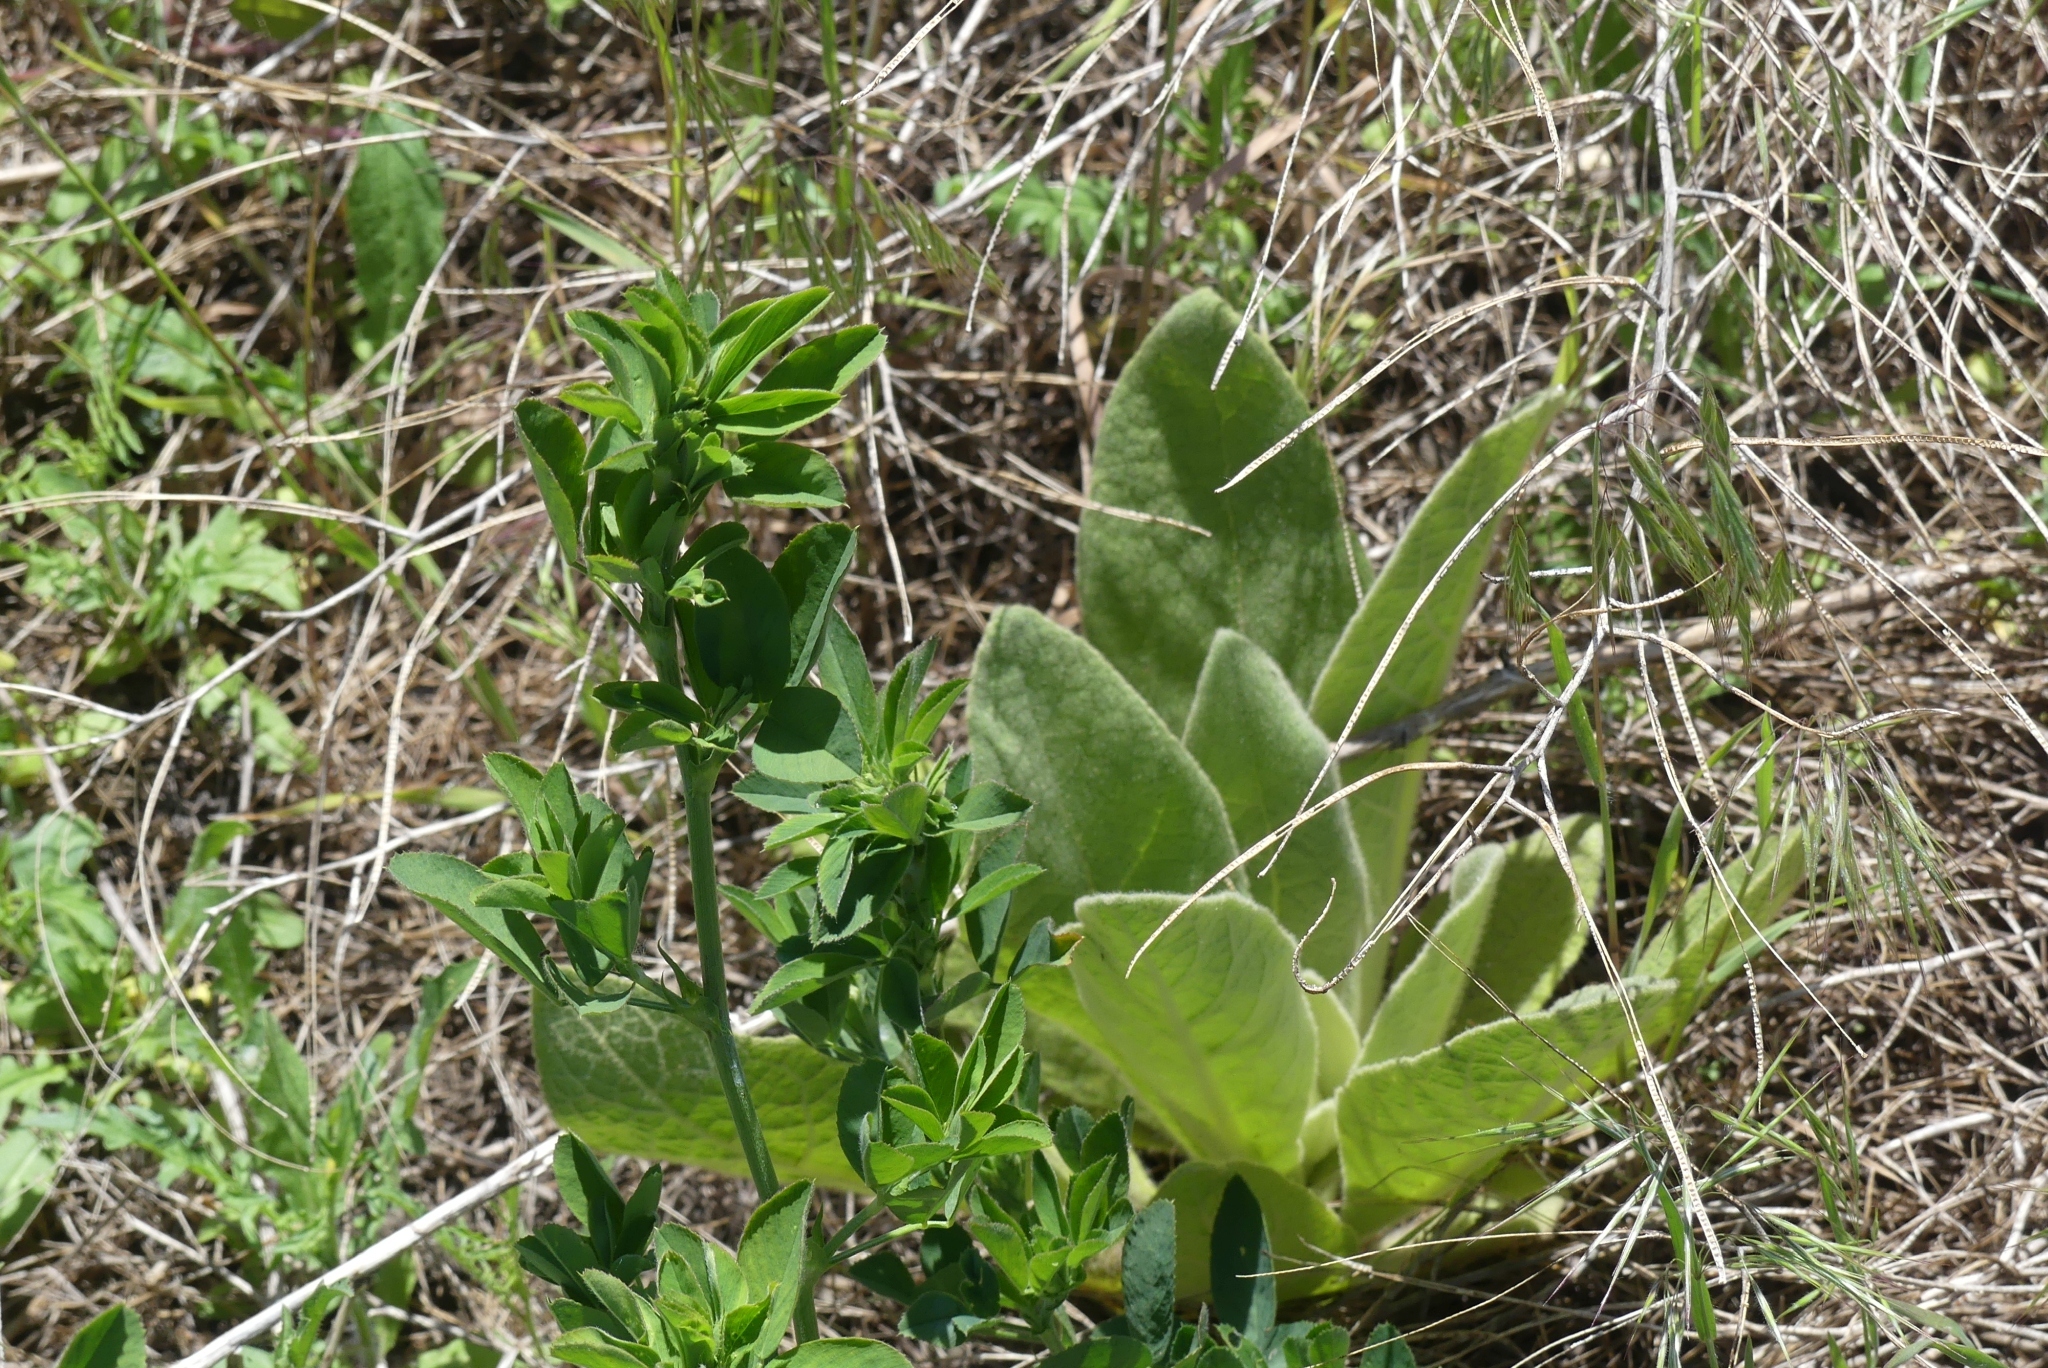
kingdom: Plantae
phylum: Tracheophyta
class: Magnoliopsida
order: Lamiales
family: Scrophulariaceae
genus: Verbascum
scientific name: Verbascum thapsus
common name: Common mullein
